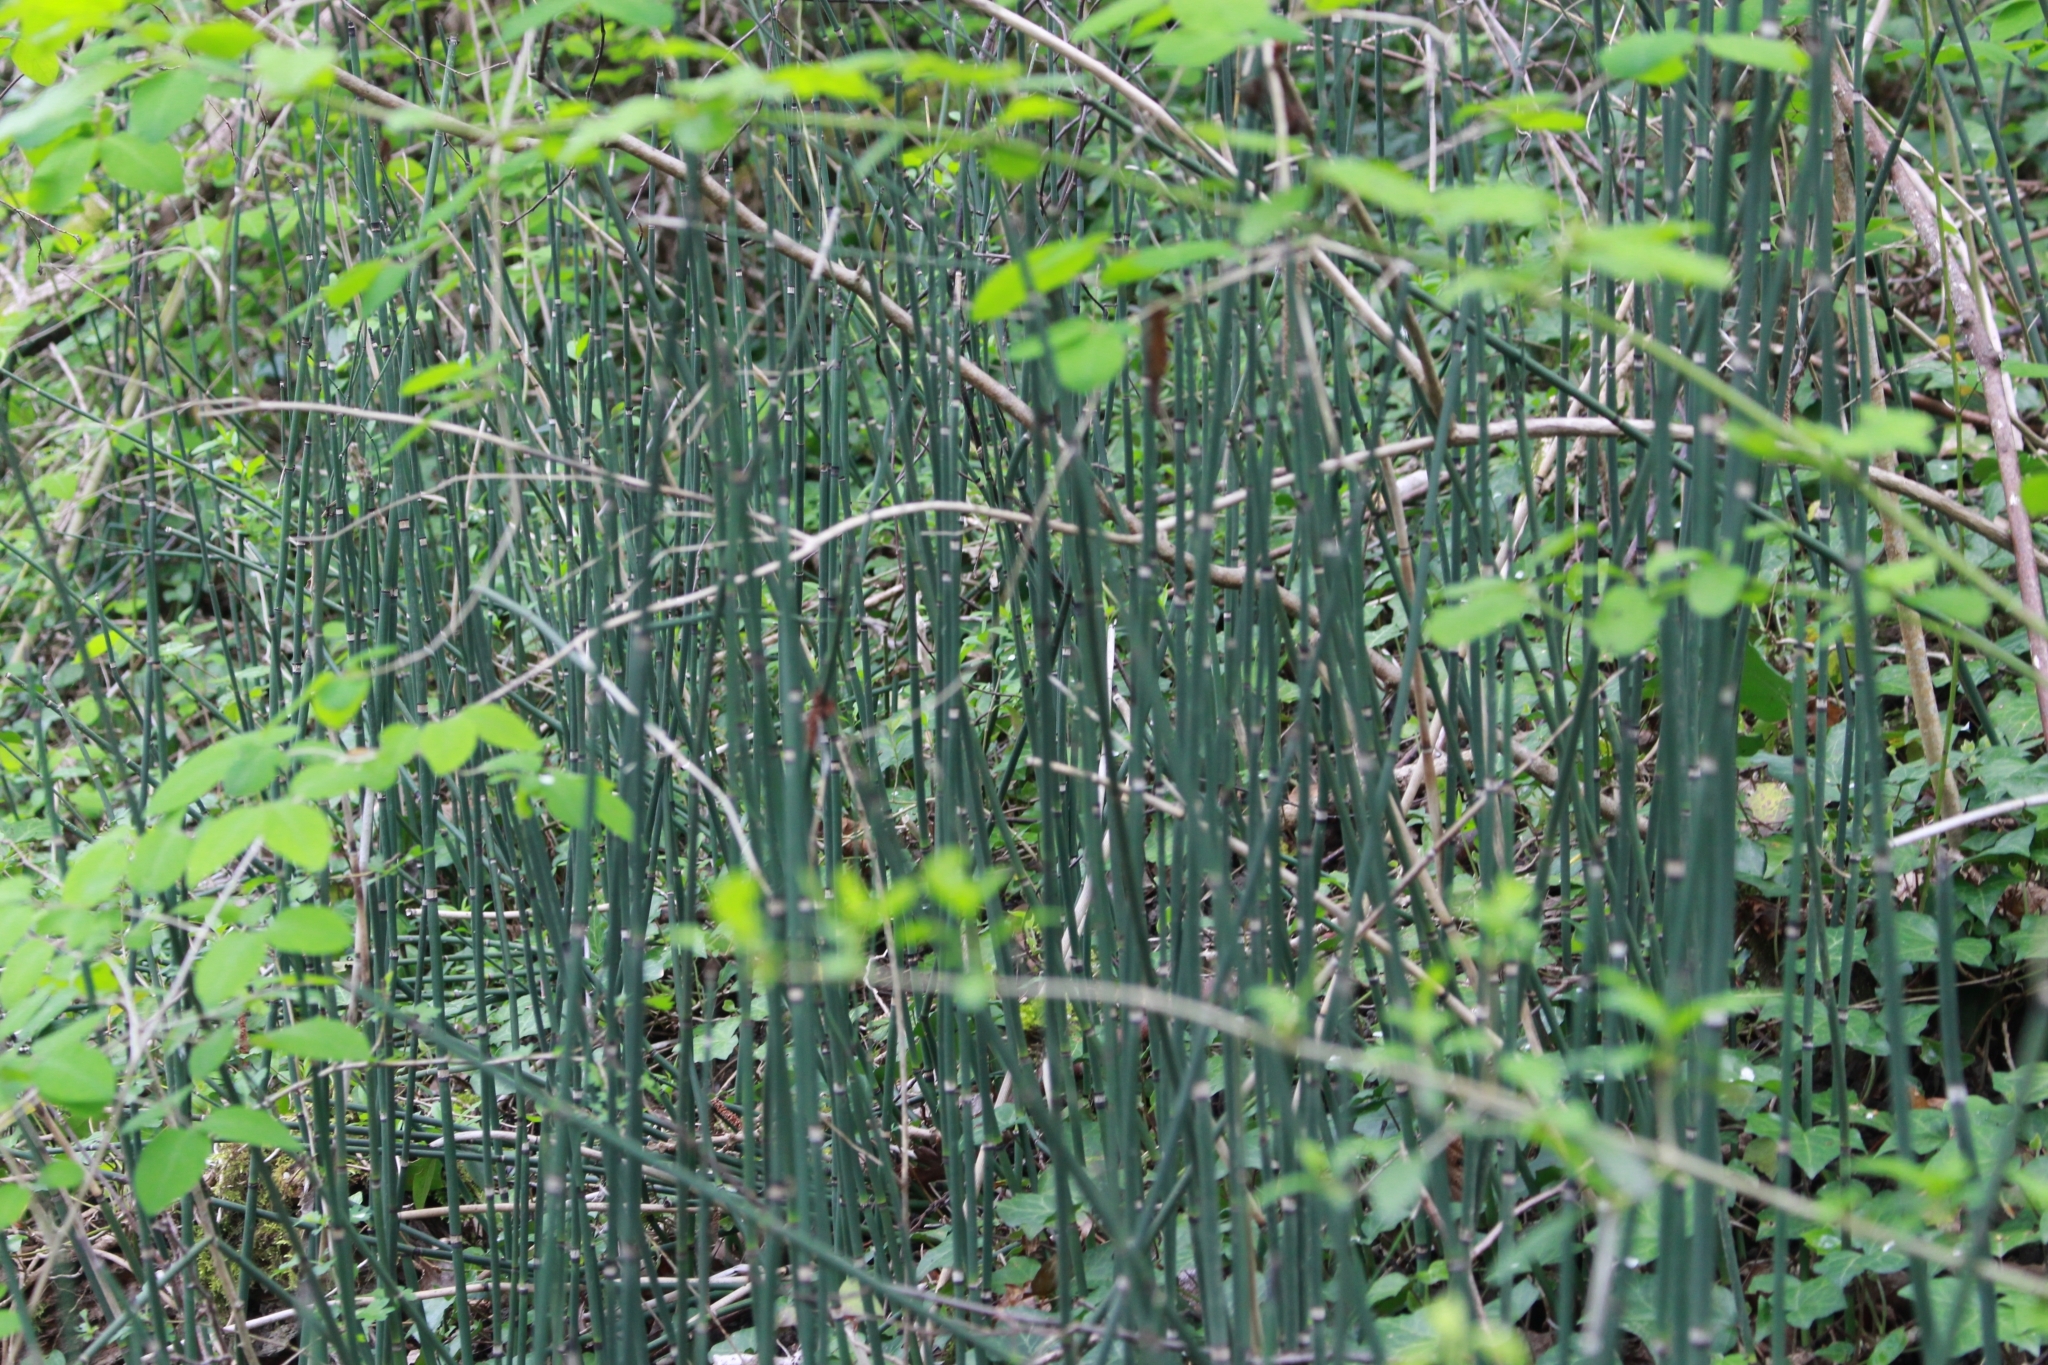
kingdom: Plantae
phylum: Tracheophyta
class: Polypodiopsida
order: Equisetales
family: Equisetaceae
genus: Equisetum
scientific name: Equisetum hyemale
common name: Rough horsetail
